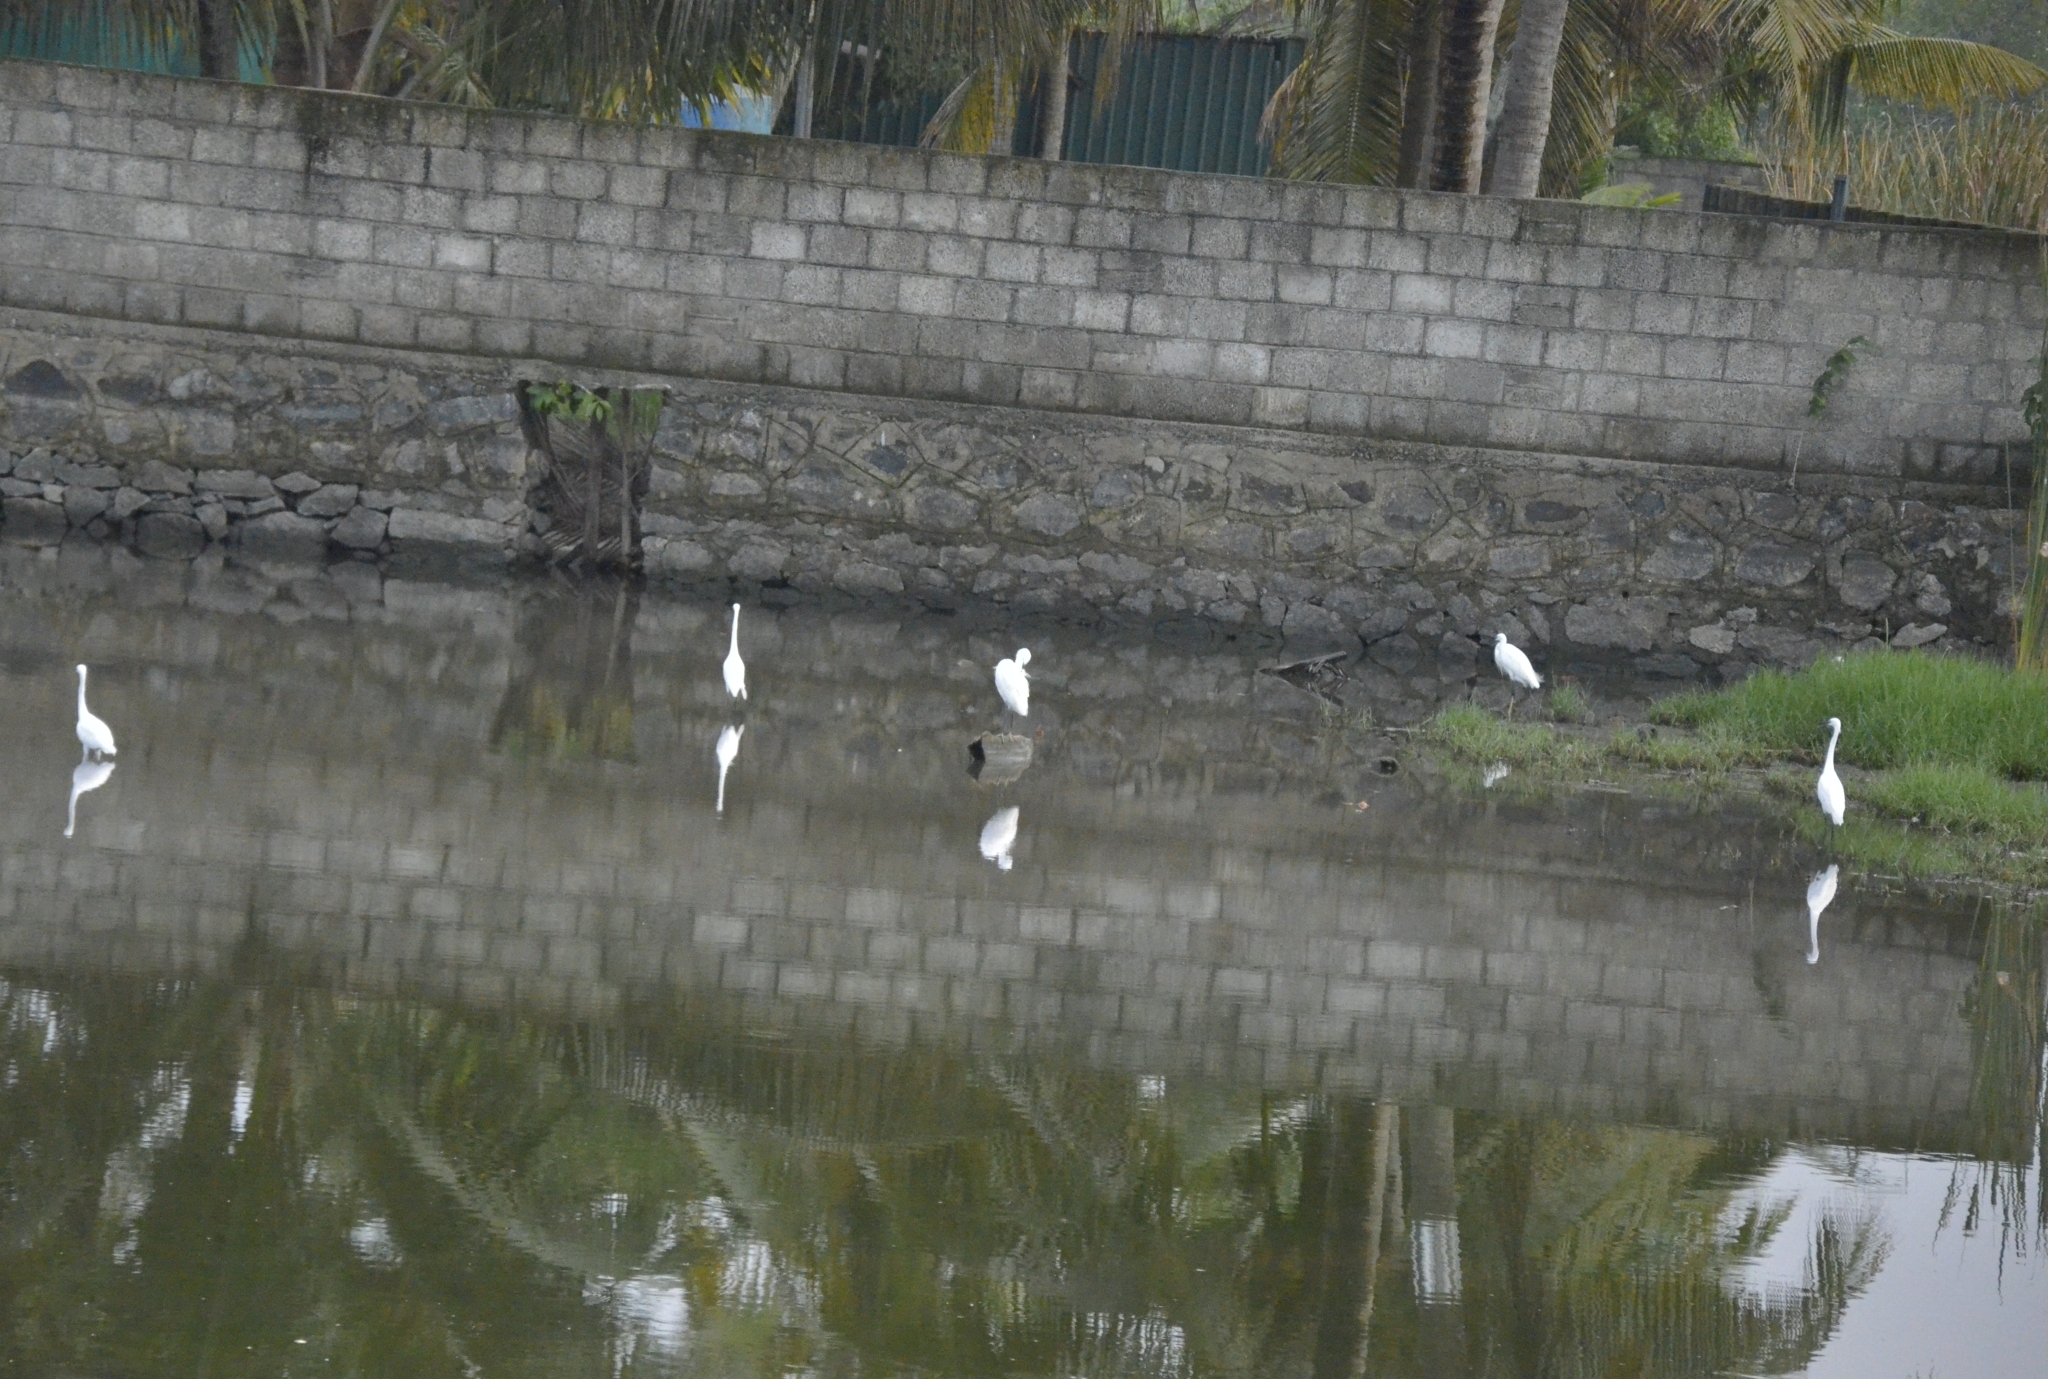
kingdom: Animalia
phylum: Chordata
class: Aves
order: Pelecaniformes
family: Ardeidae
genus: Egretta
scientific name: Egretta garzetta
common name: Little egret
